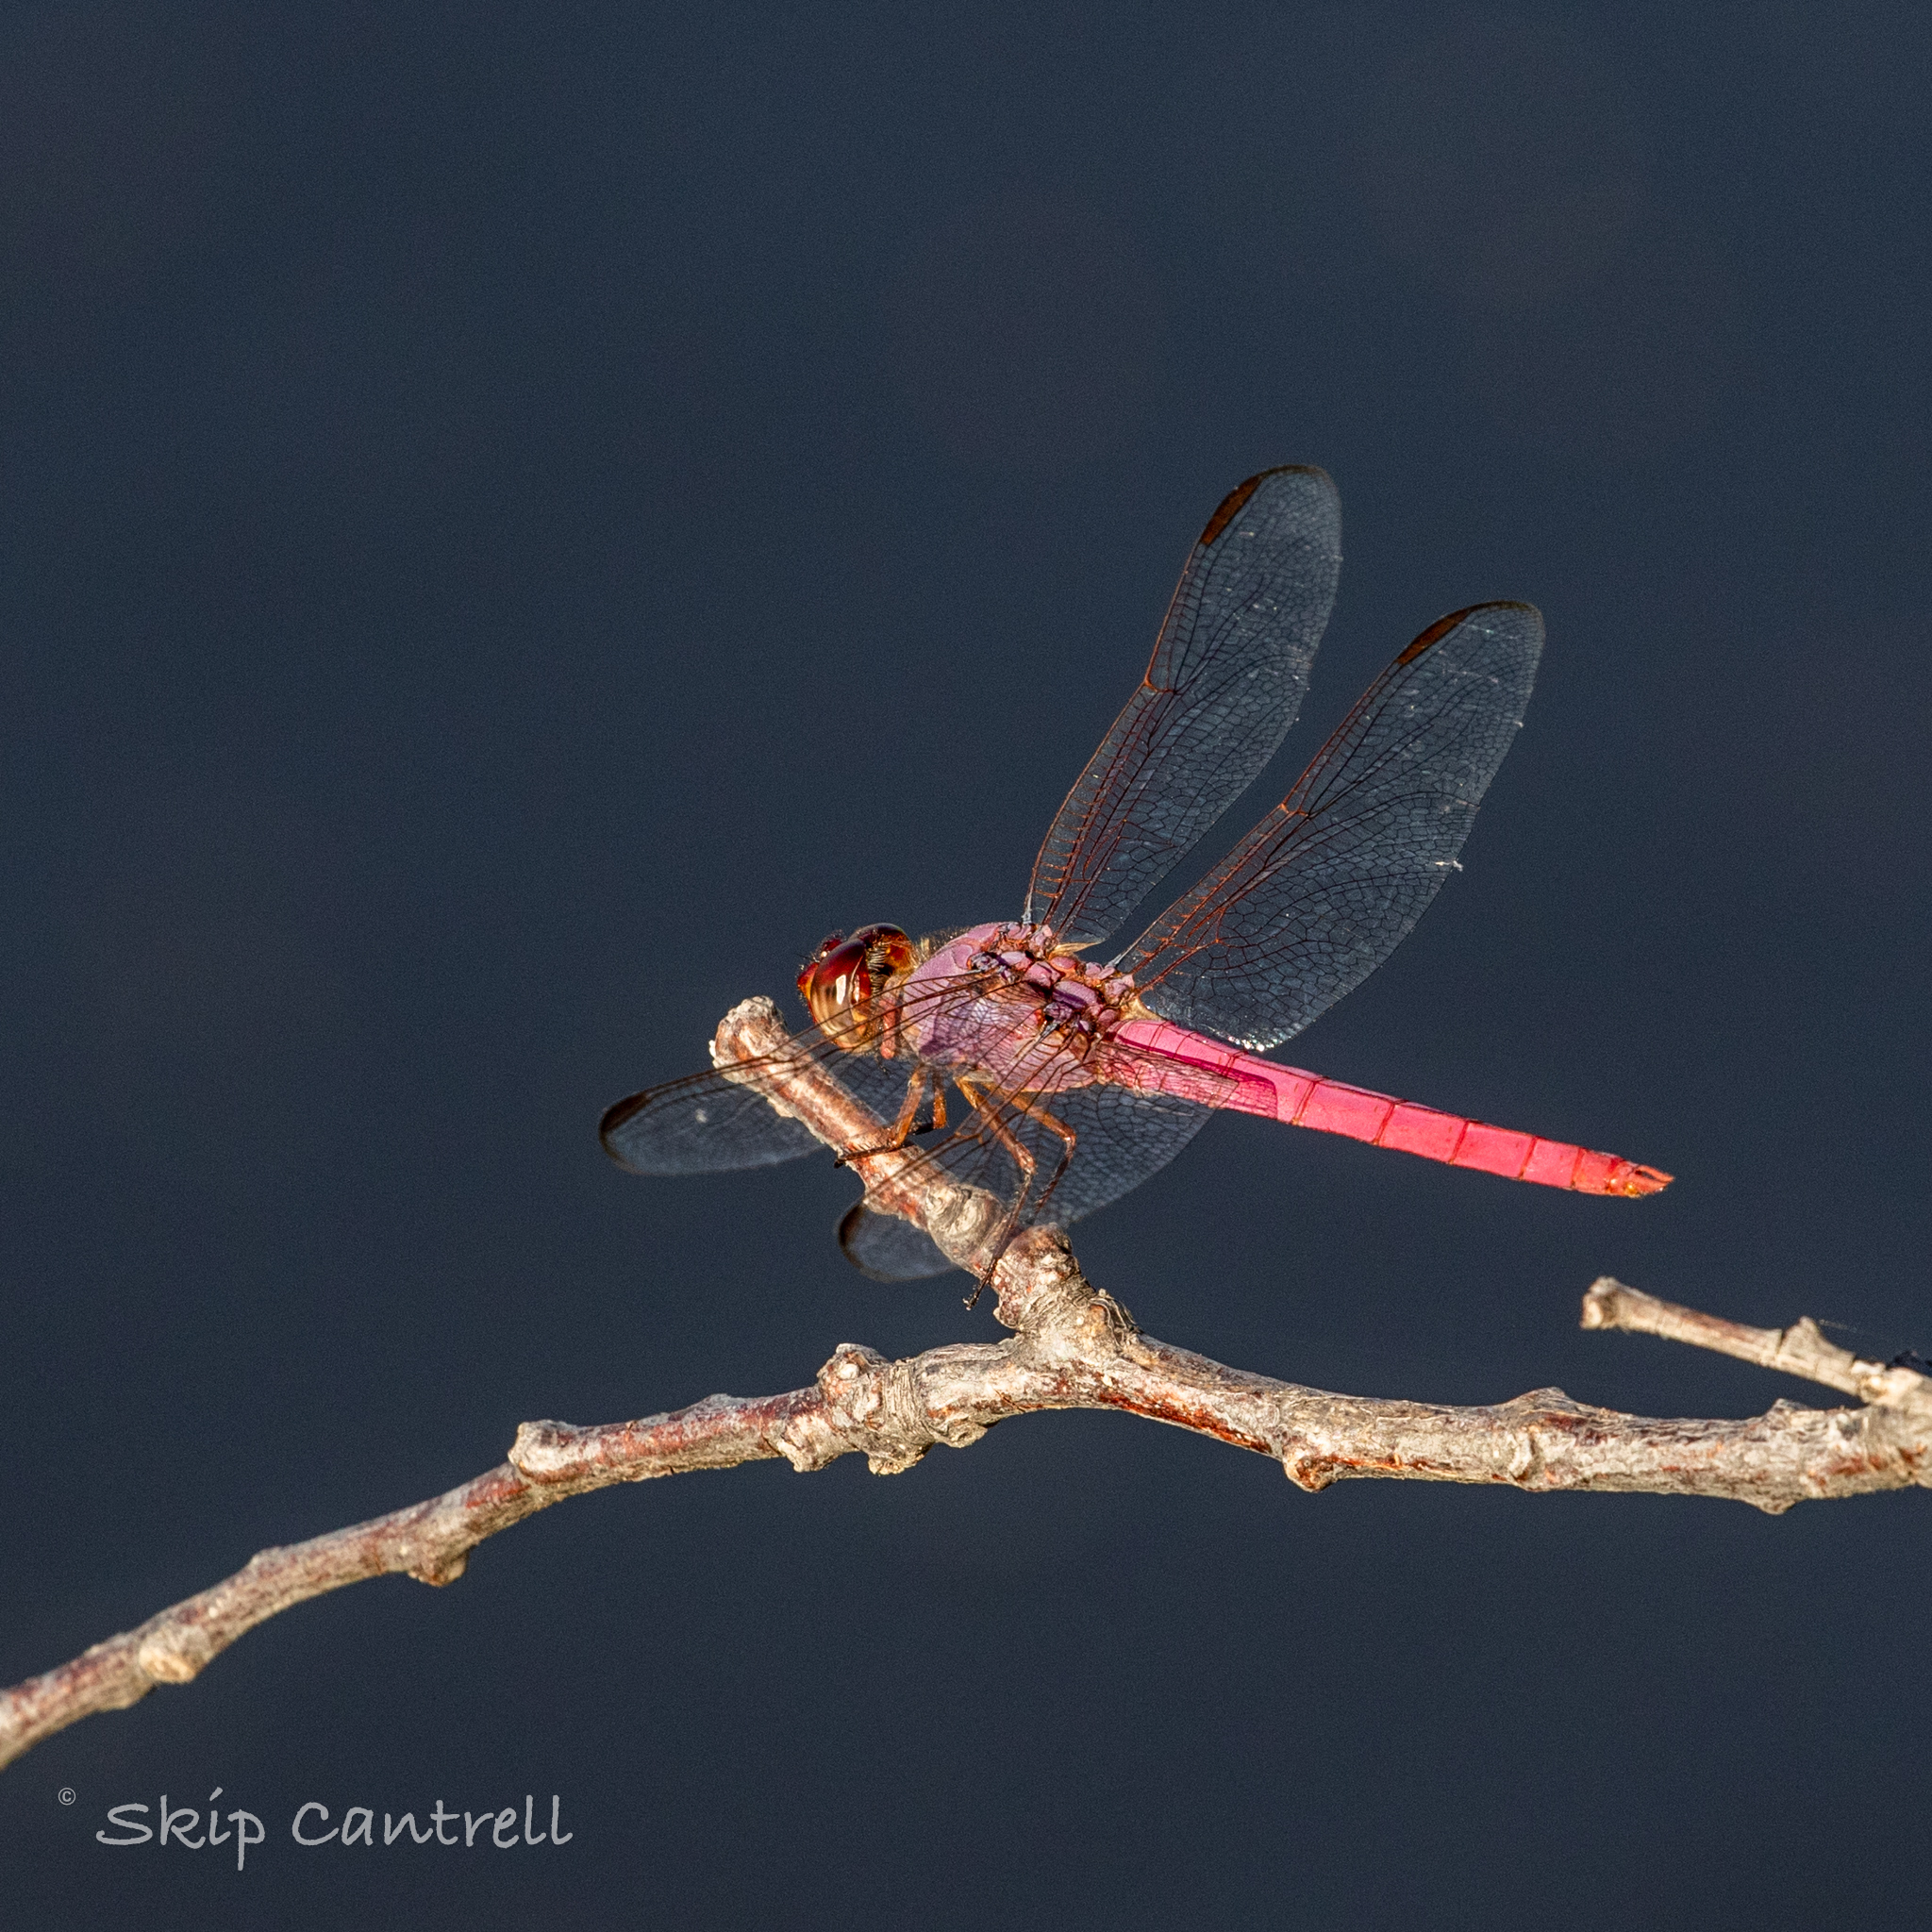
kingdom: Animalia
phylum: Arthropoda
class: Insecta
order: Odonata
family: Libellulidae
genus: Orthemis
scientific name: Orthemis ferruginea
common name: Roseate skimmer
